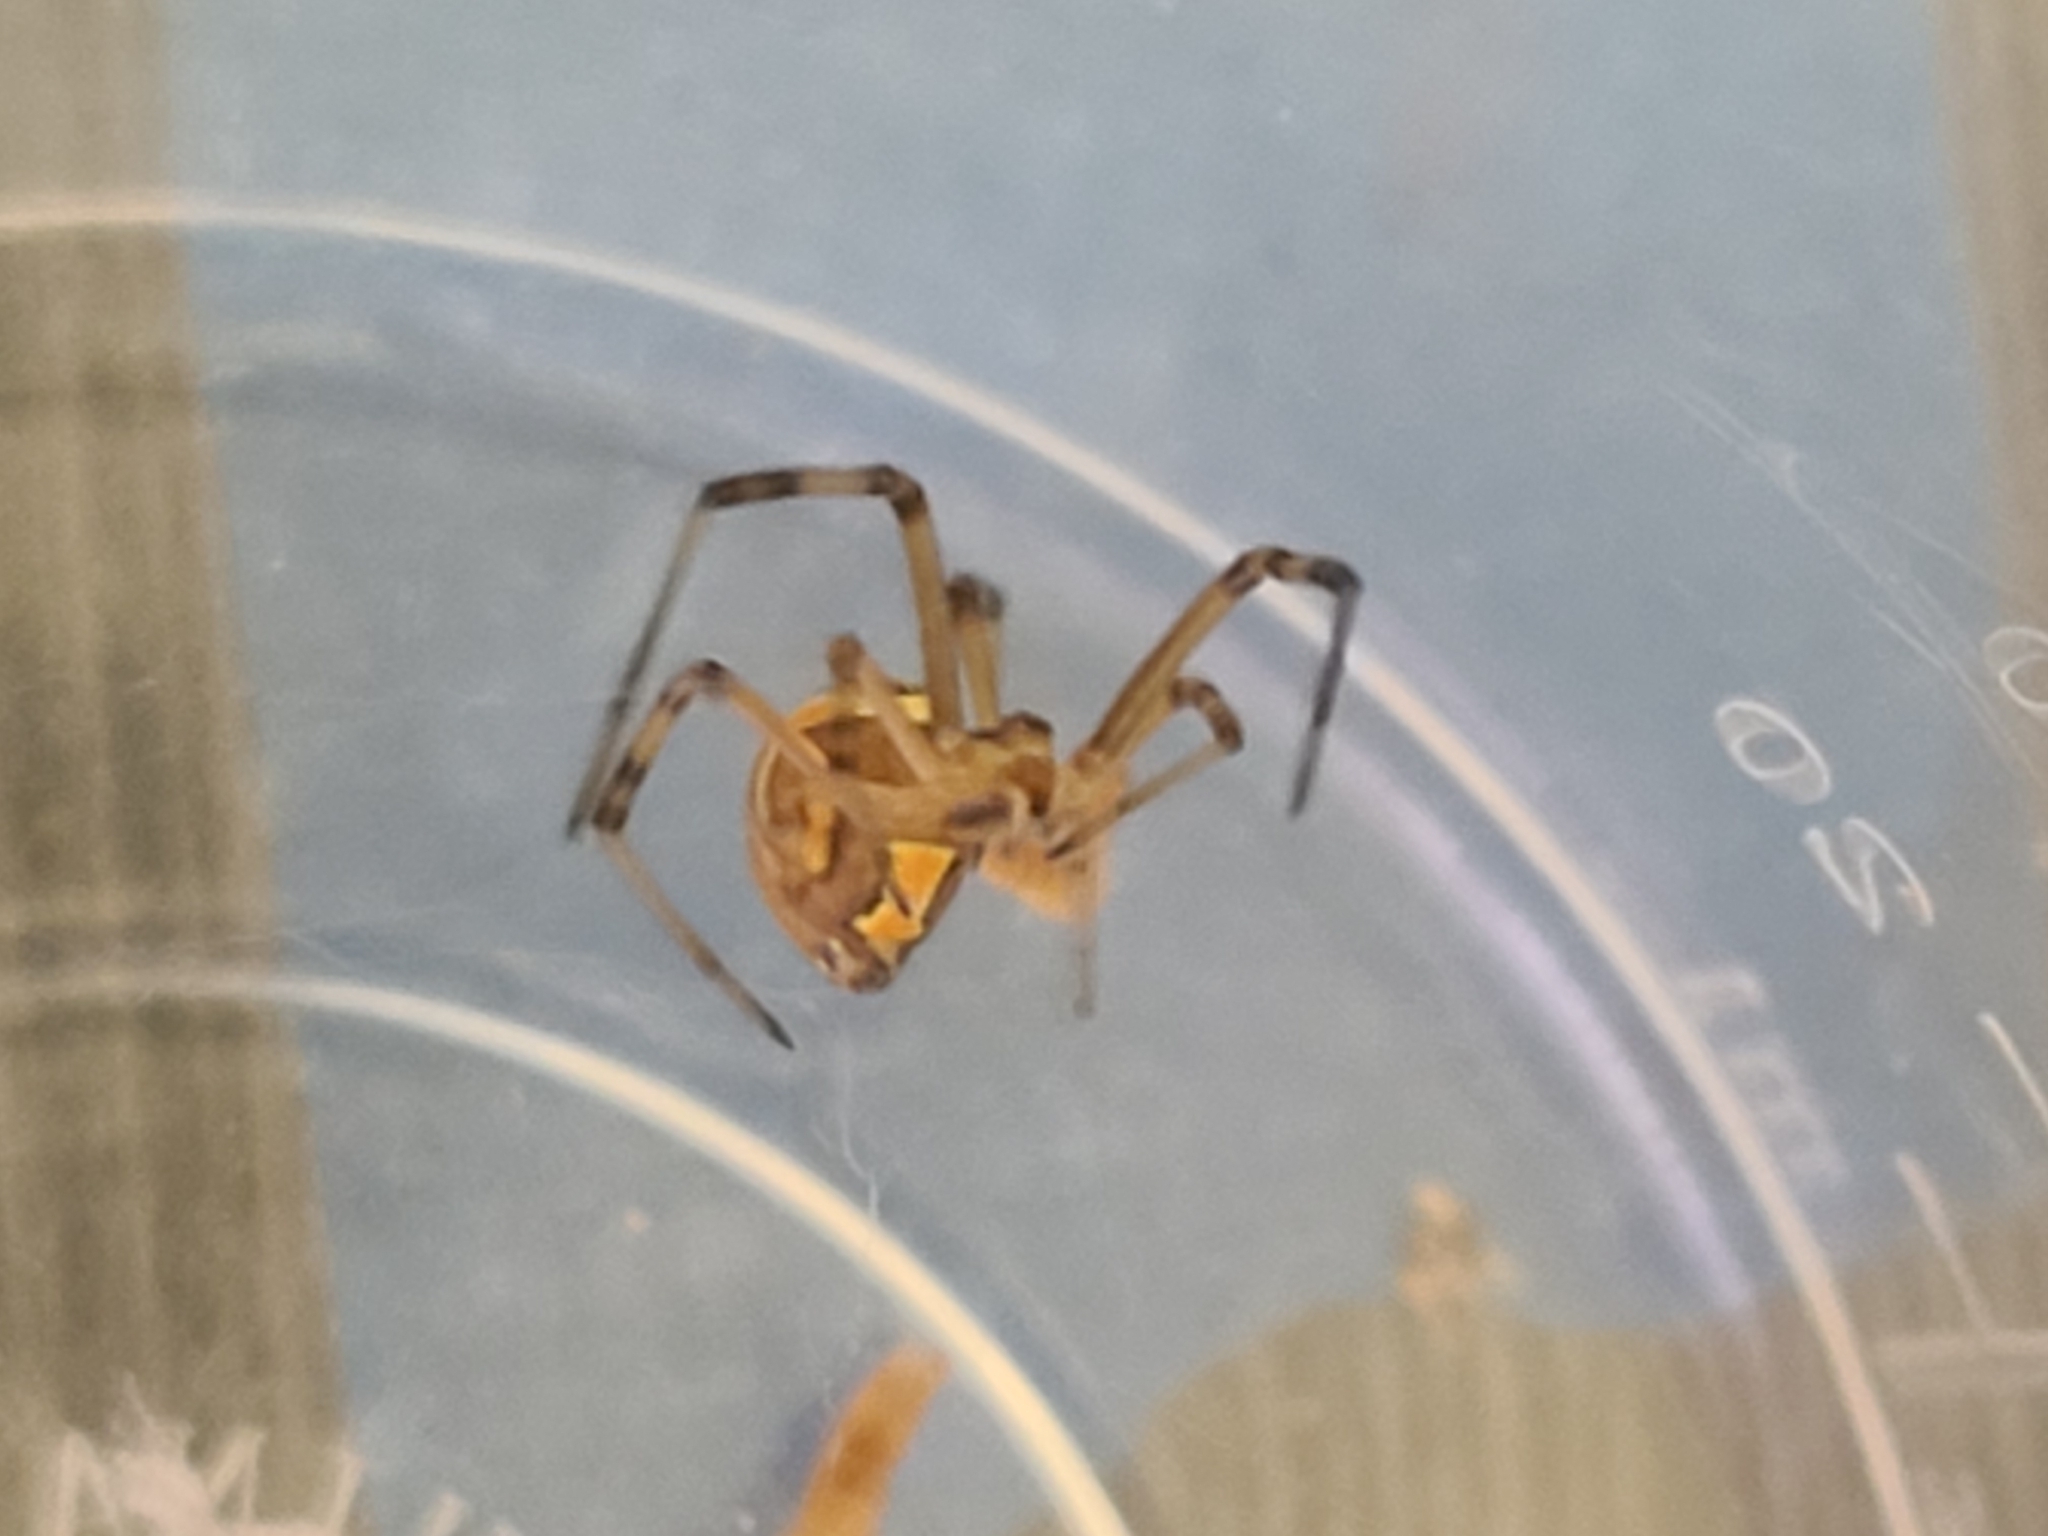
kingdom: Animalia
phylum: Arthropoda
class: Arachnida
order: Araneae
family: Theridiidae
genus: Latrodectus
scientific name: Latrodectus hesperus
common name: Western black widow
